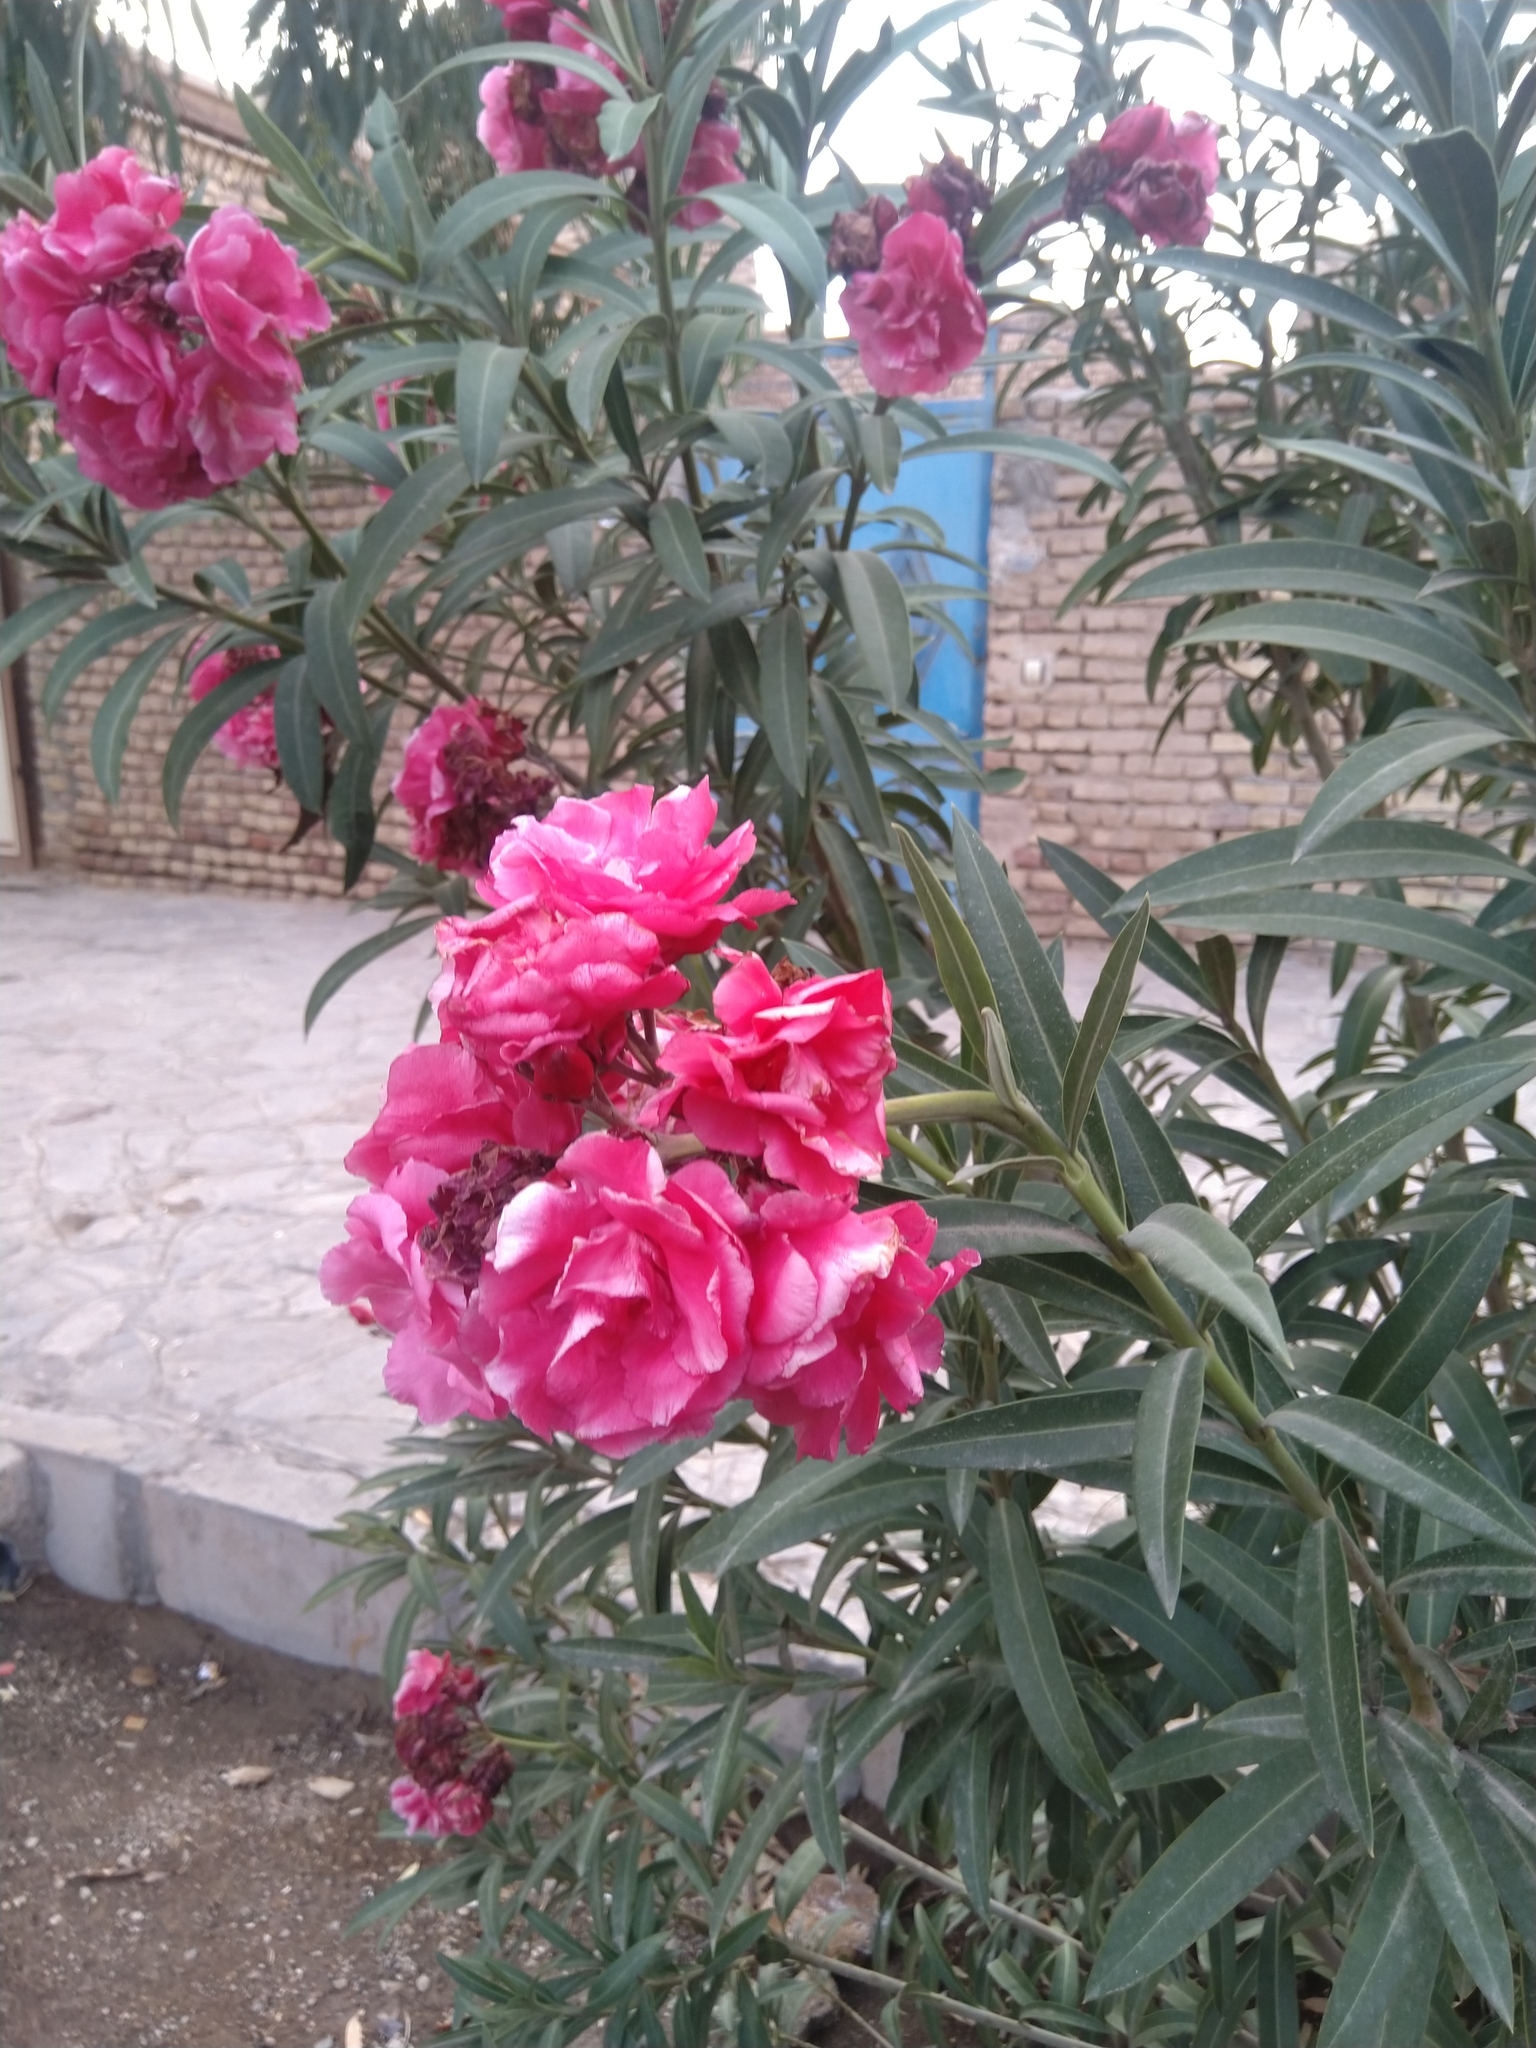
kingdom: Plantae
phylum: Tracheophyta
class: Magnoliopsida
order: Gentianales
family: Apocynaceae
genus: Nerium
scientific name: Nerium oleander
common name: Oleander
